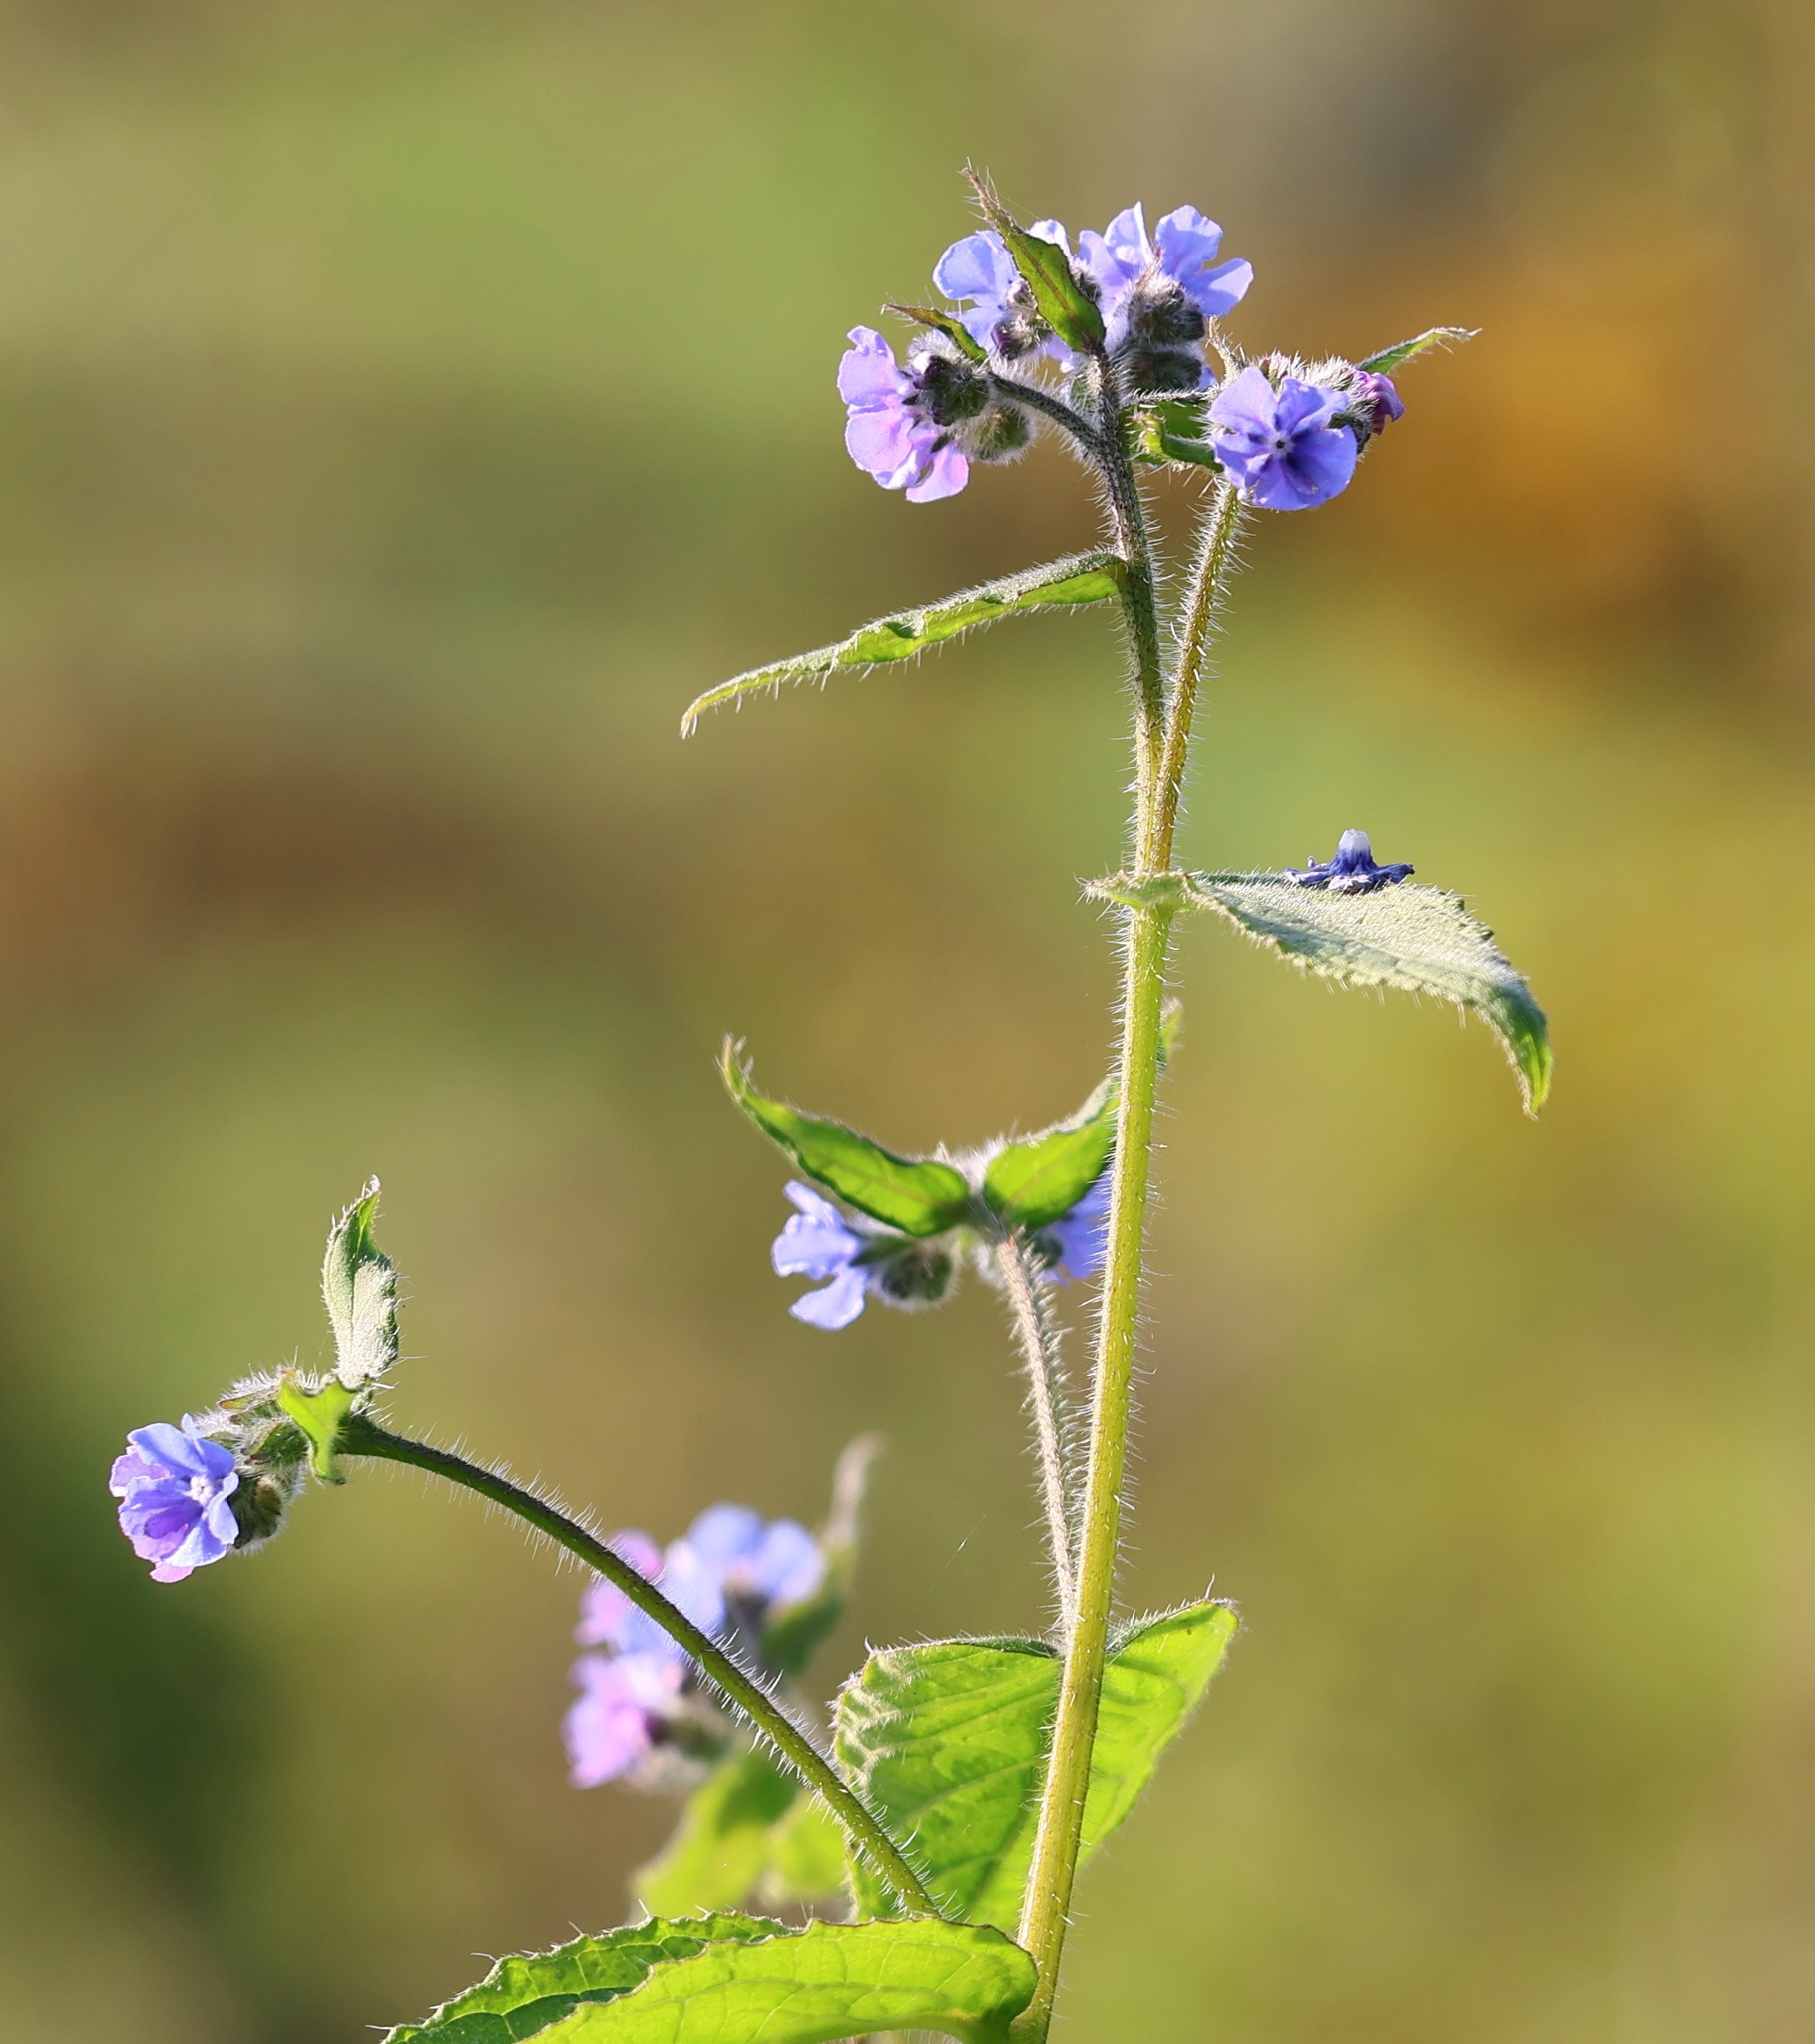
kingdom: Plantae
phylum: Tracheophyta
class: Magnoliopsida
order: Boraginales
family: Boraginaceae
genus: Pentaglottis
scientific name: Pentaglottis sempervirens
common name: Green alkanet
